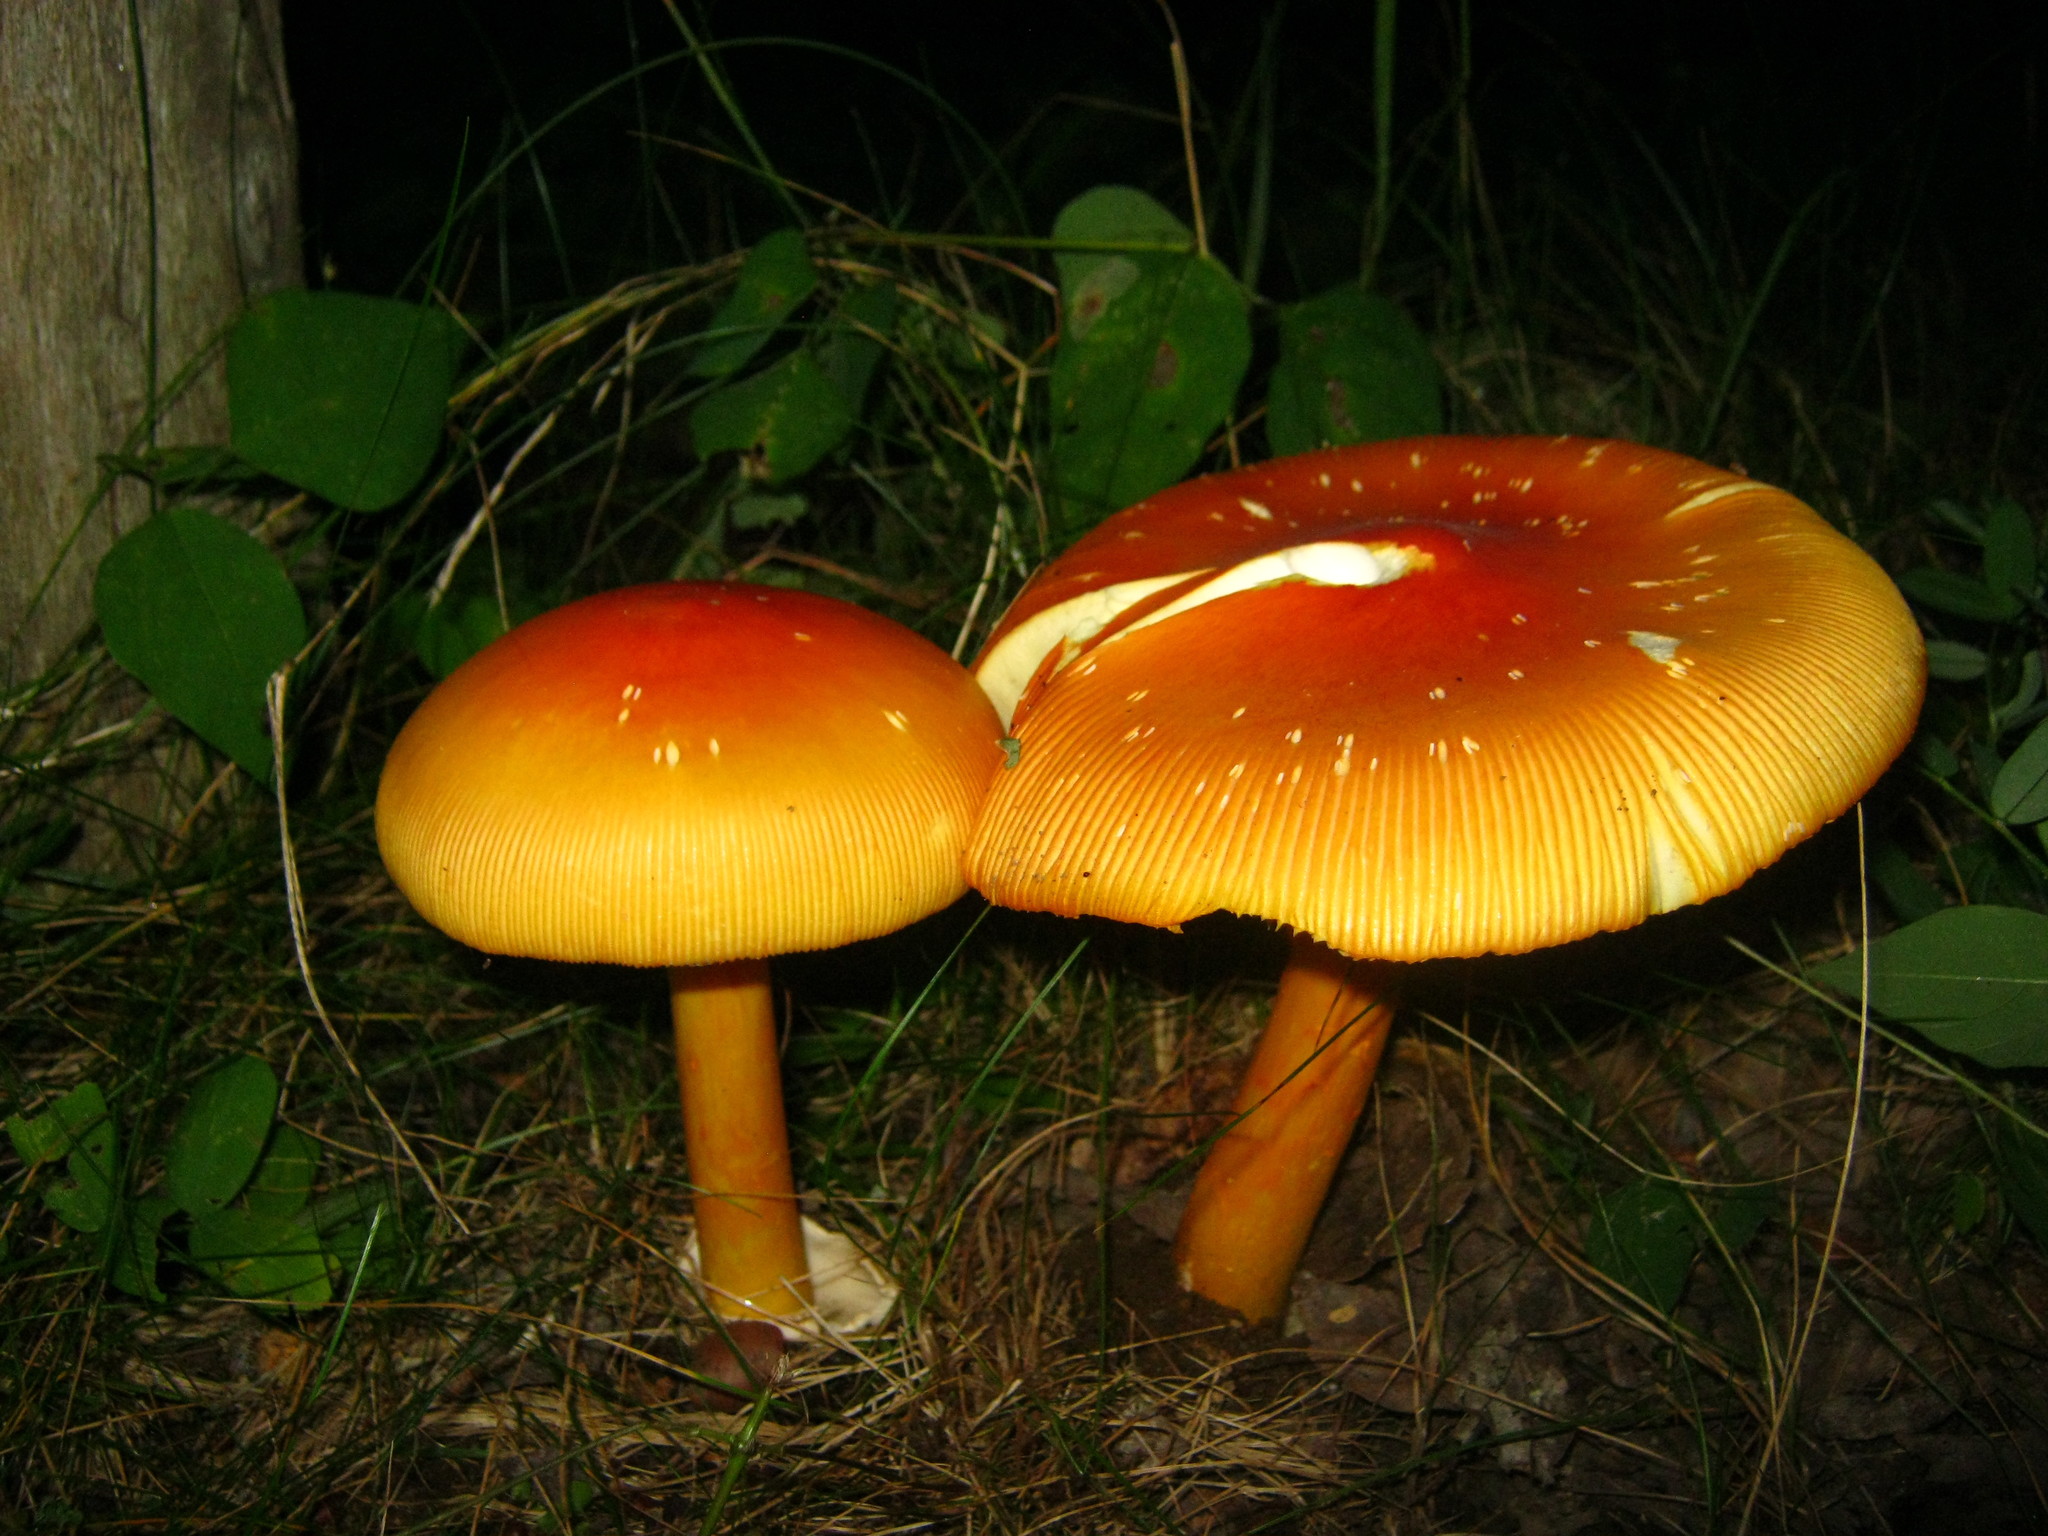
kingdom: Fungi
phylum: Basidiomycota
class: Agaricomycetes
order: Agaricales
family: Amanitaceae
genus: Amanita
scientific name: Amanita jacksonii
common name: Jackson's slender caesar
